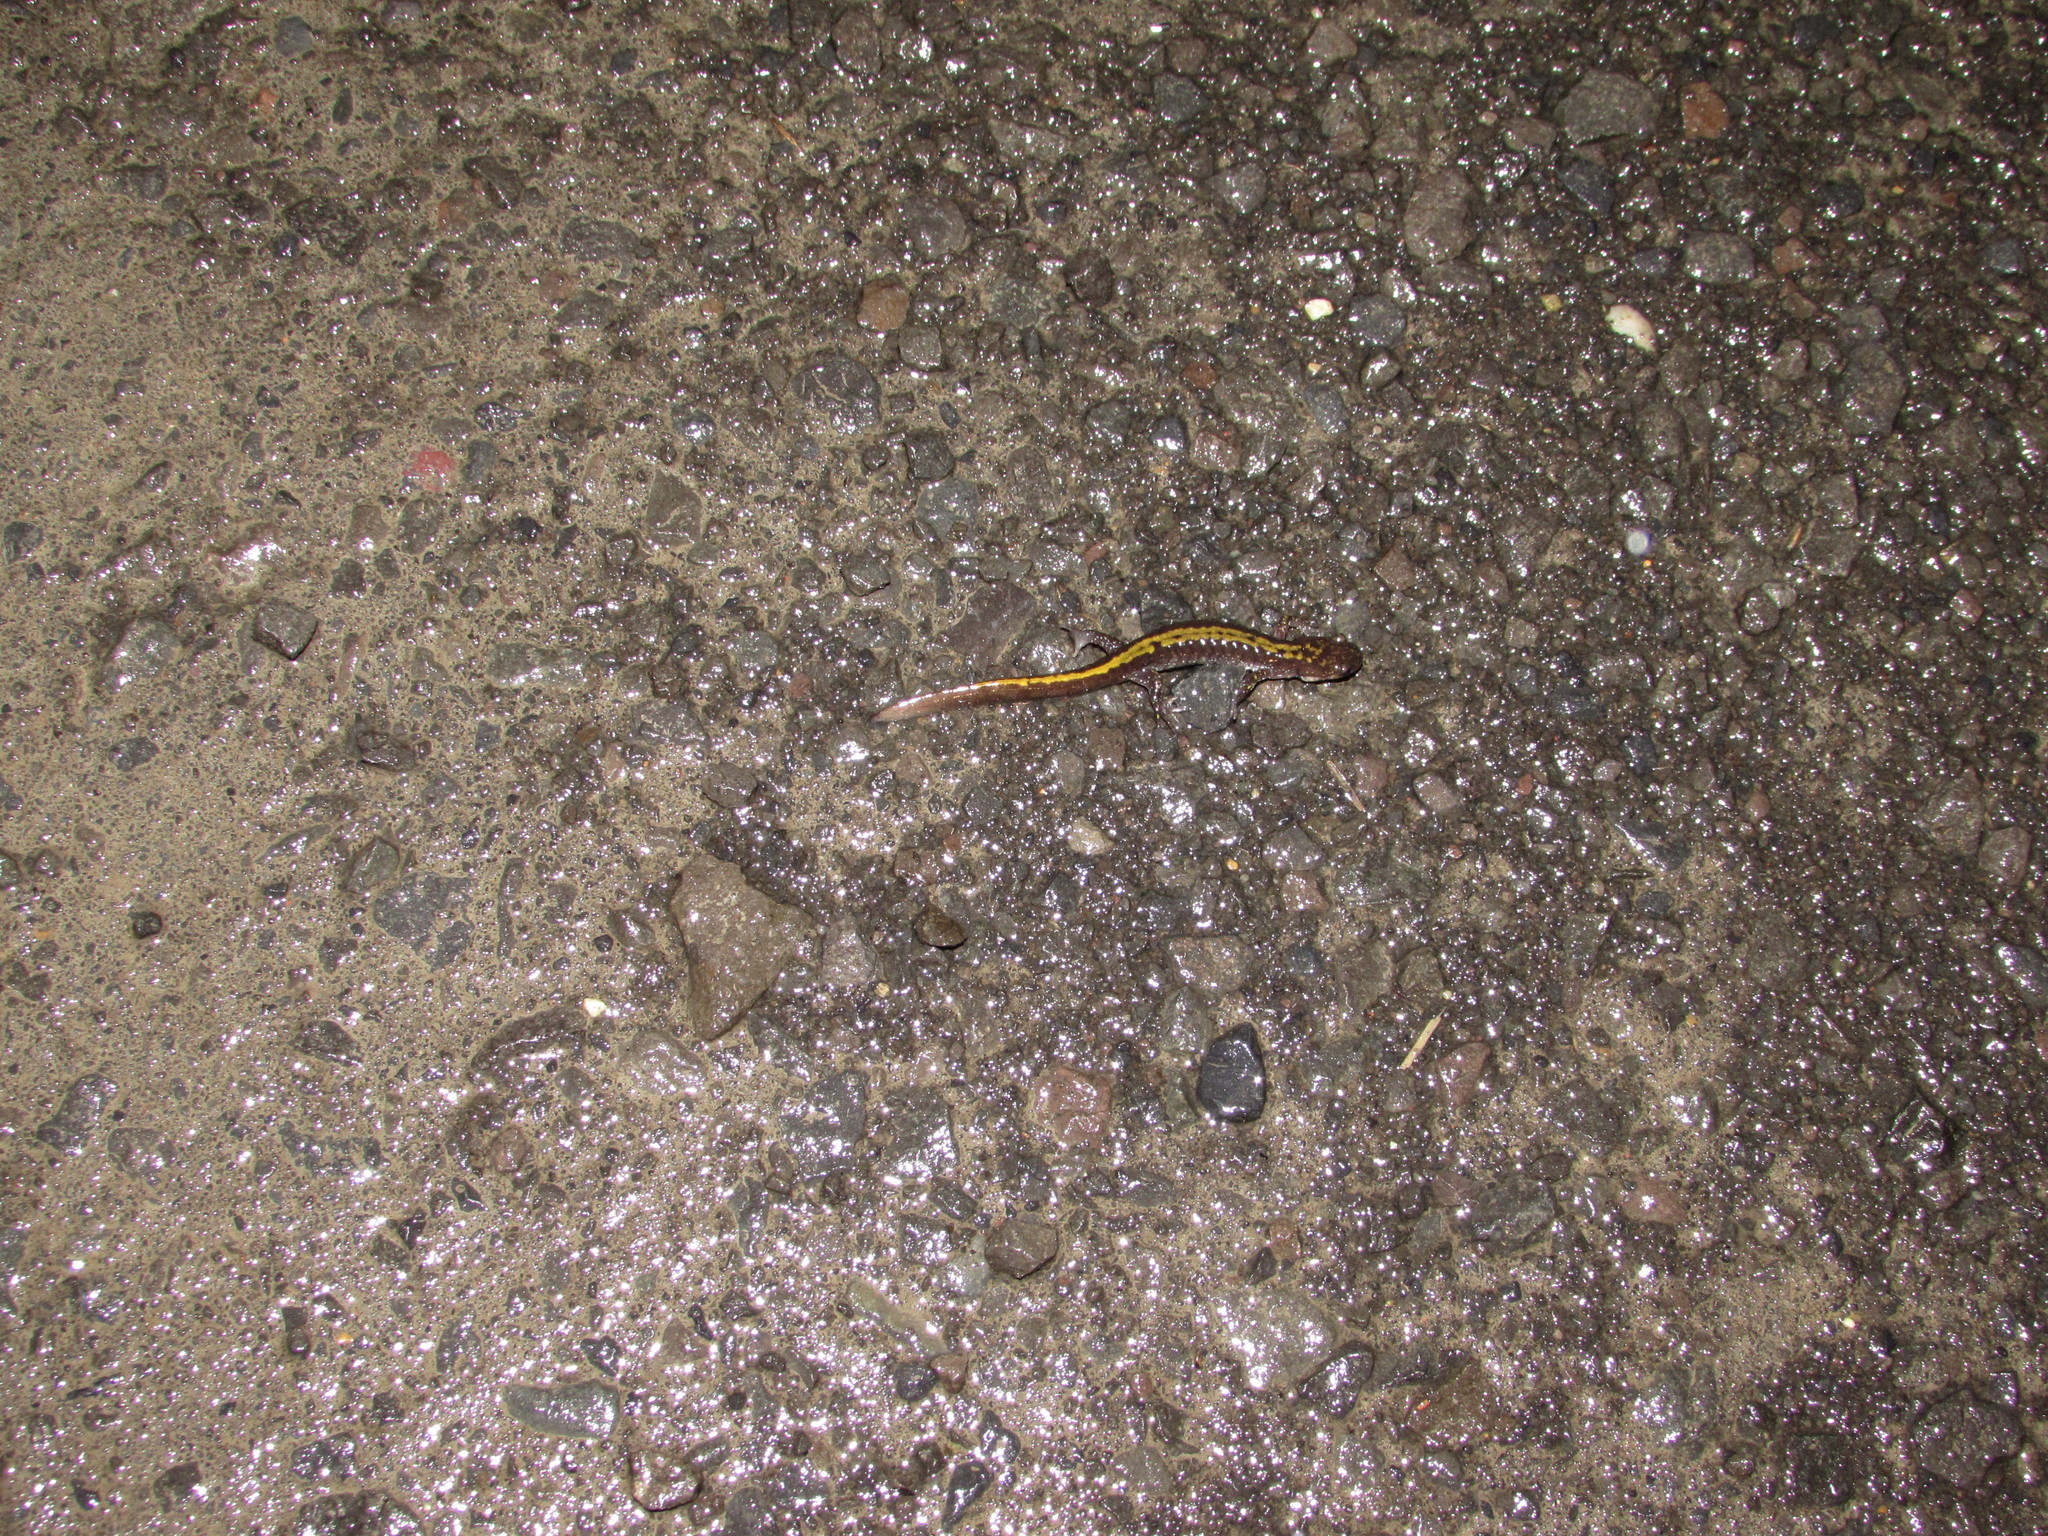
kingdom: Animalia
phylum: Chordata
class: Amphibia
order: Caudata
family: Ambystomatidae
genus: Ambystoma
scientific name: Ambystoma macrodactylum
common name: Long-toed salamander
